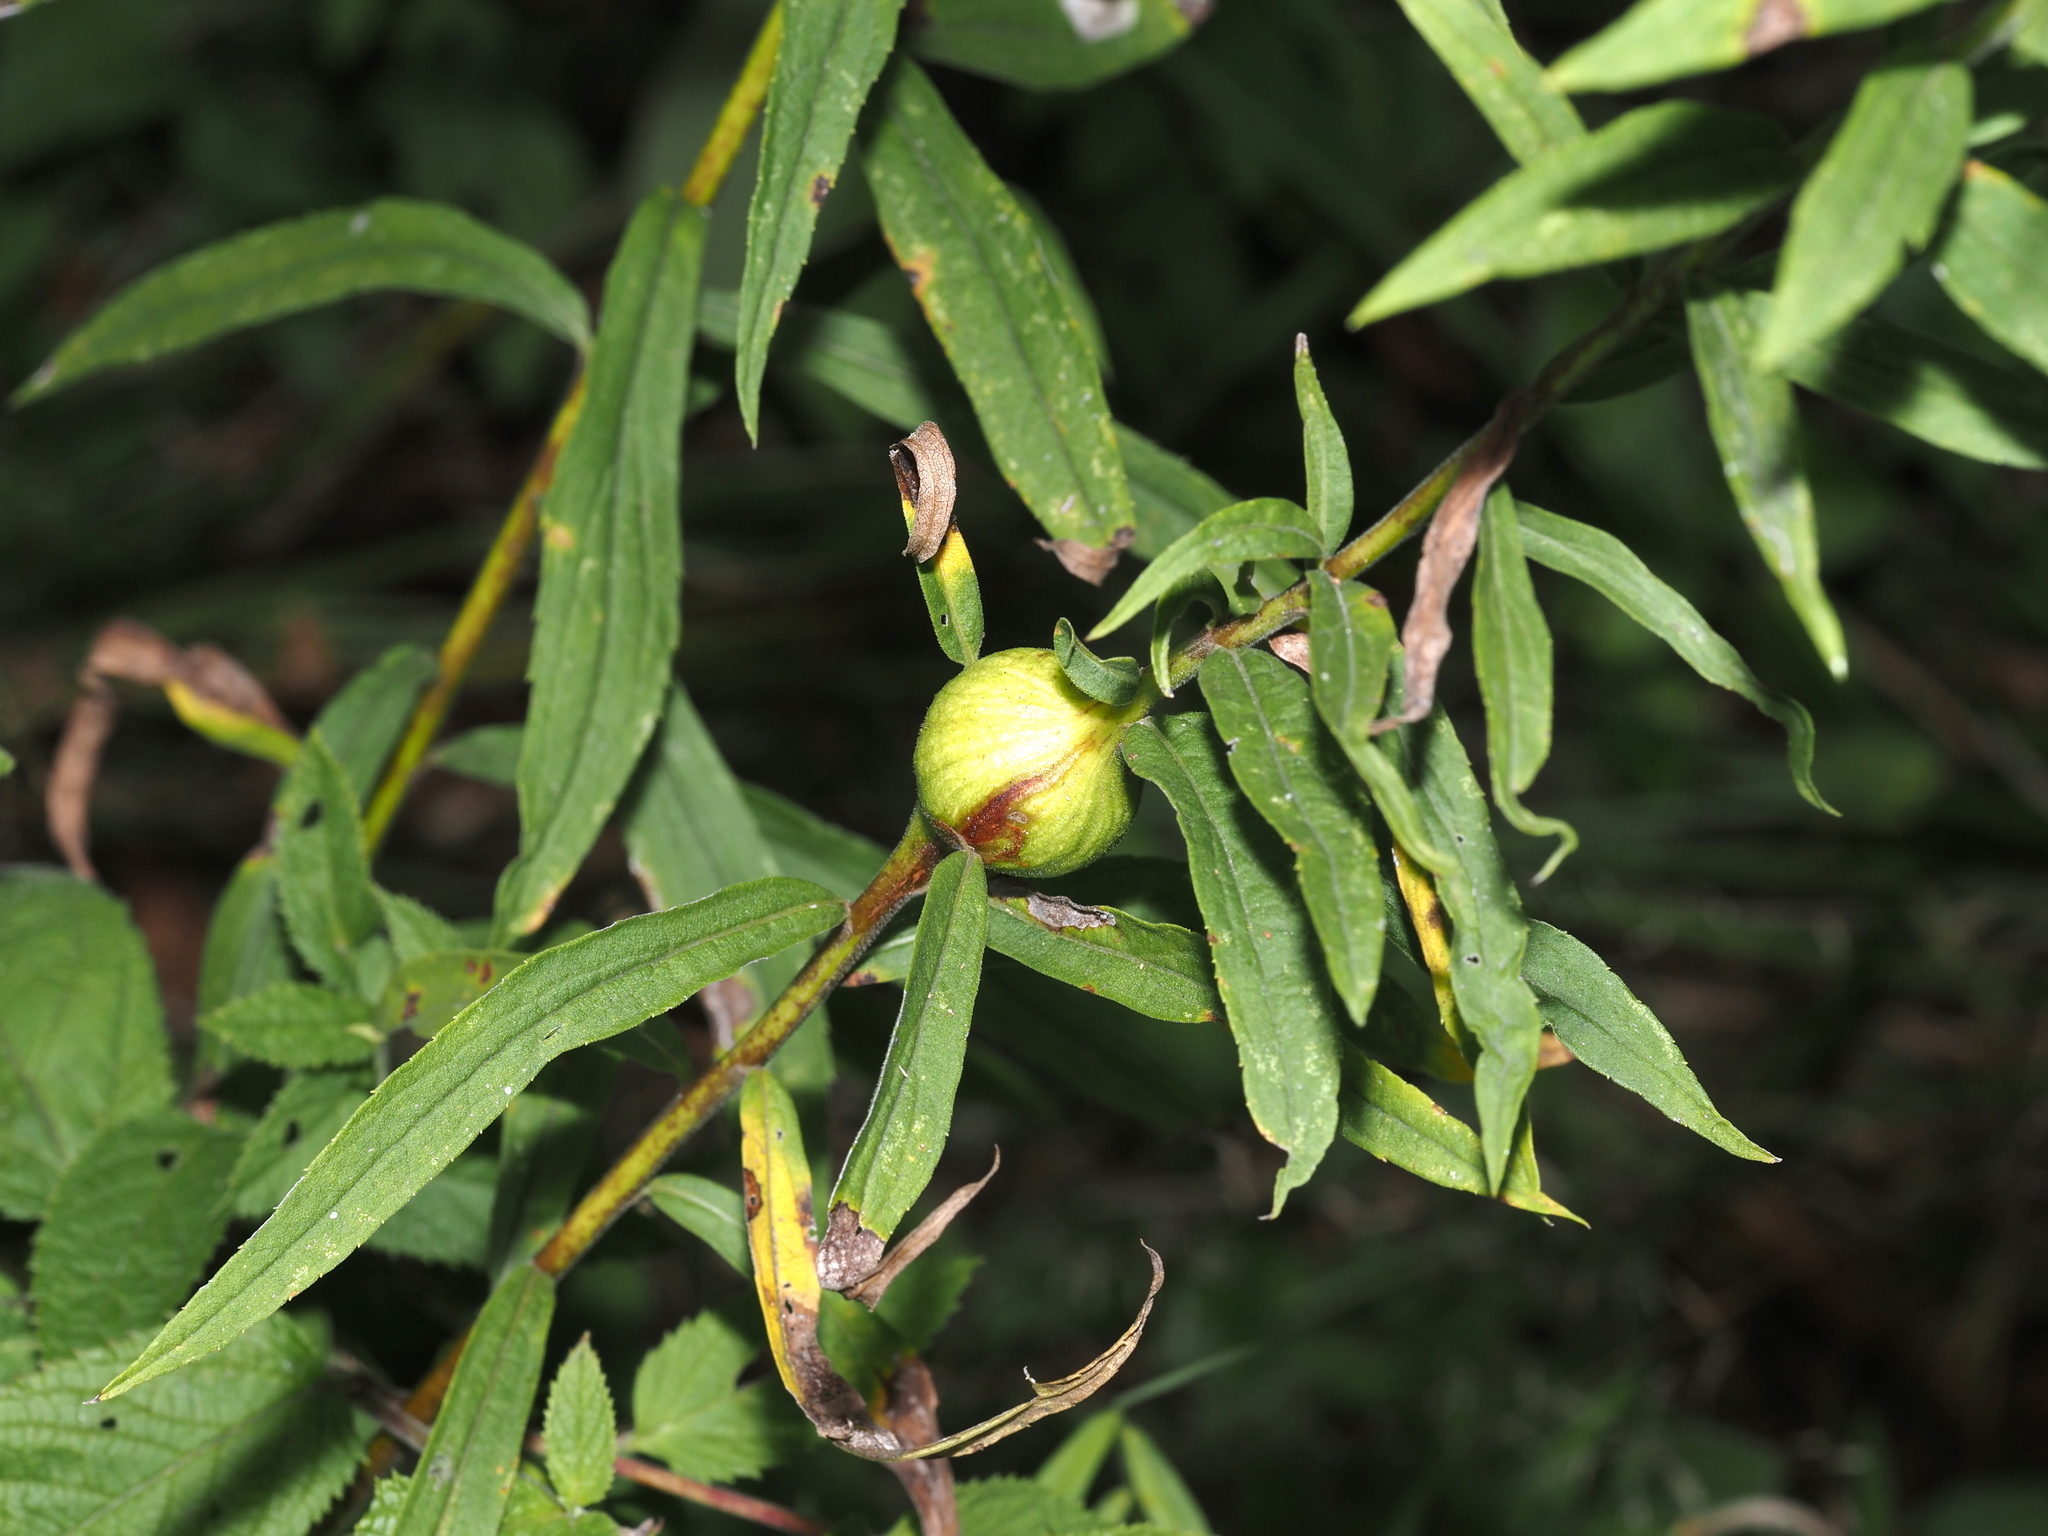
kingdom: Animalia
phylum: Arthropoda
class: Insecta
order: Diptera
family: Tephritidae
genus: Eurosta
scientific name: Eurosta solidaginis
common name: Goldenrod gall fly
